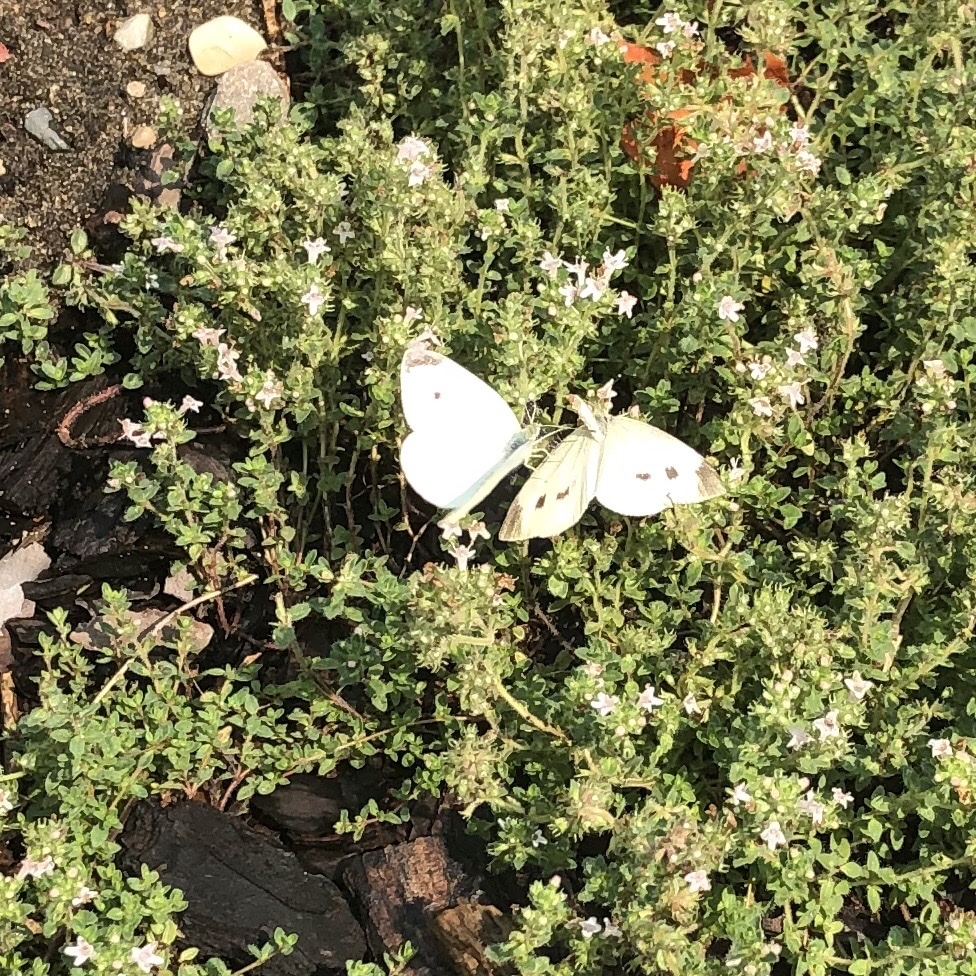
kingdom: Animalia
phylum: Arthropoda
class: Insecta
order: Lepidoptera
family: Pieridae
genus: Pieris
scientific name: Pieris rapae
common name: Small white
